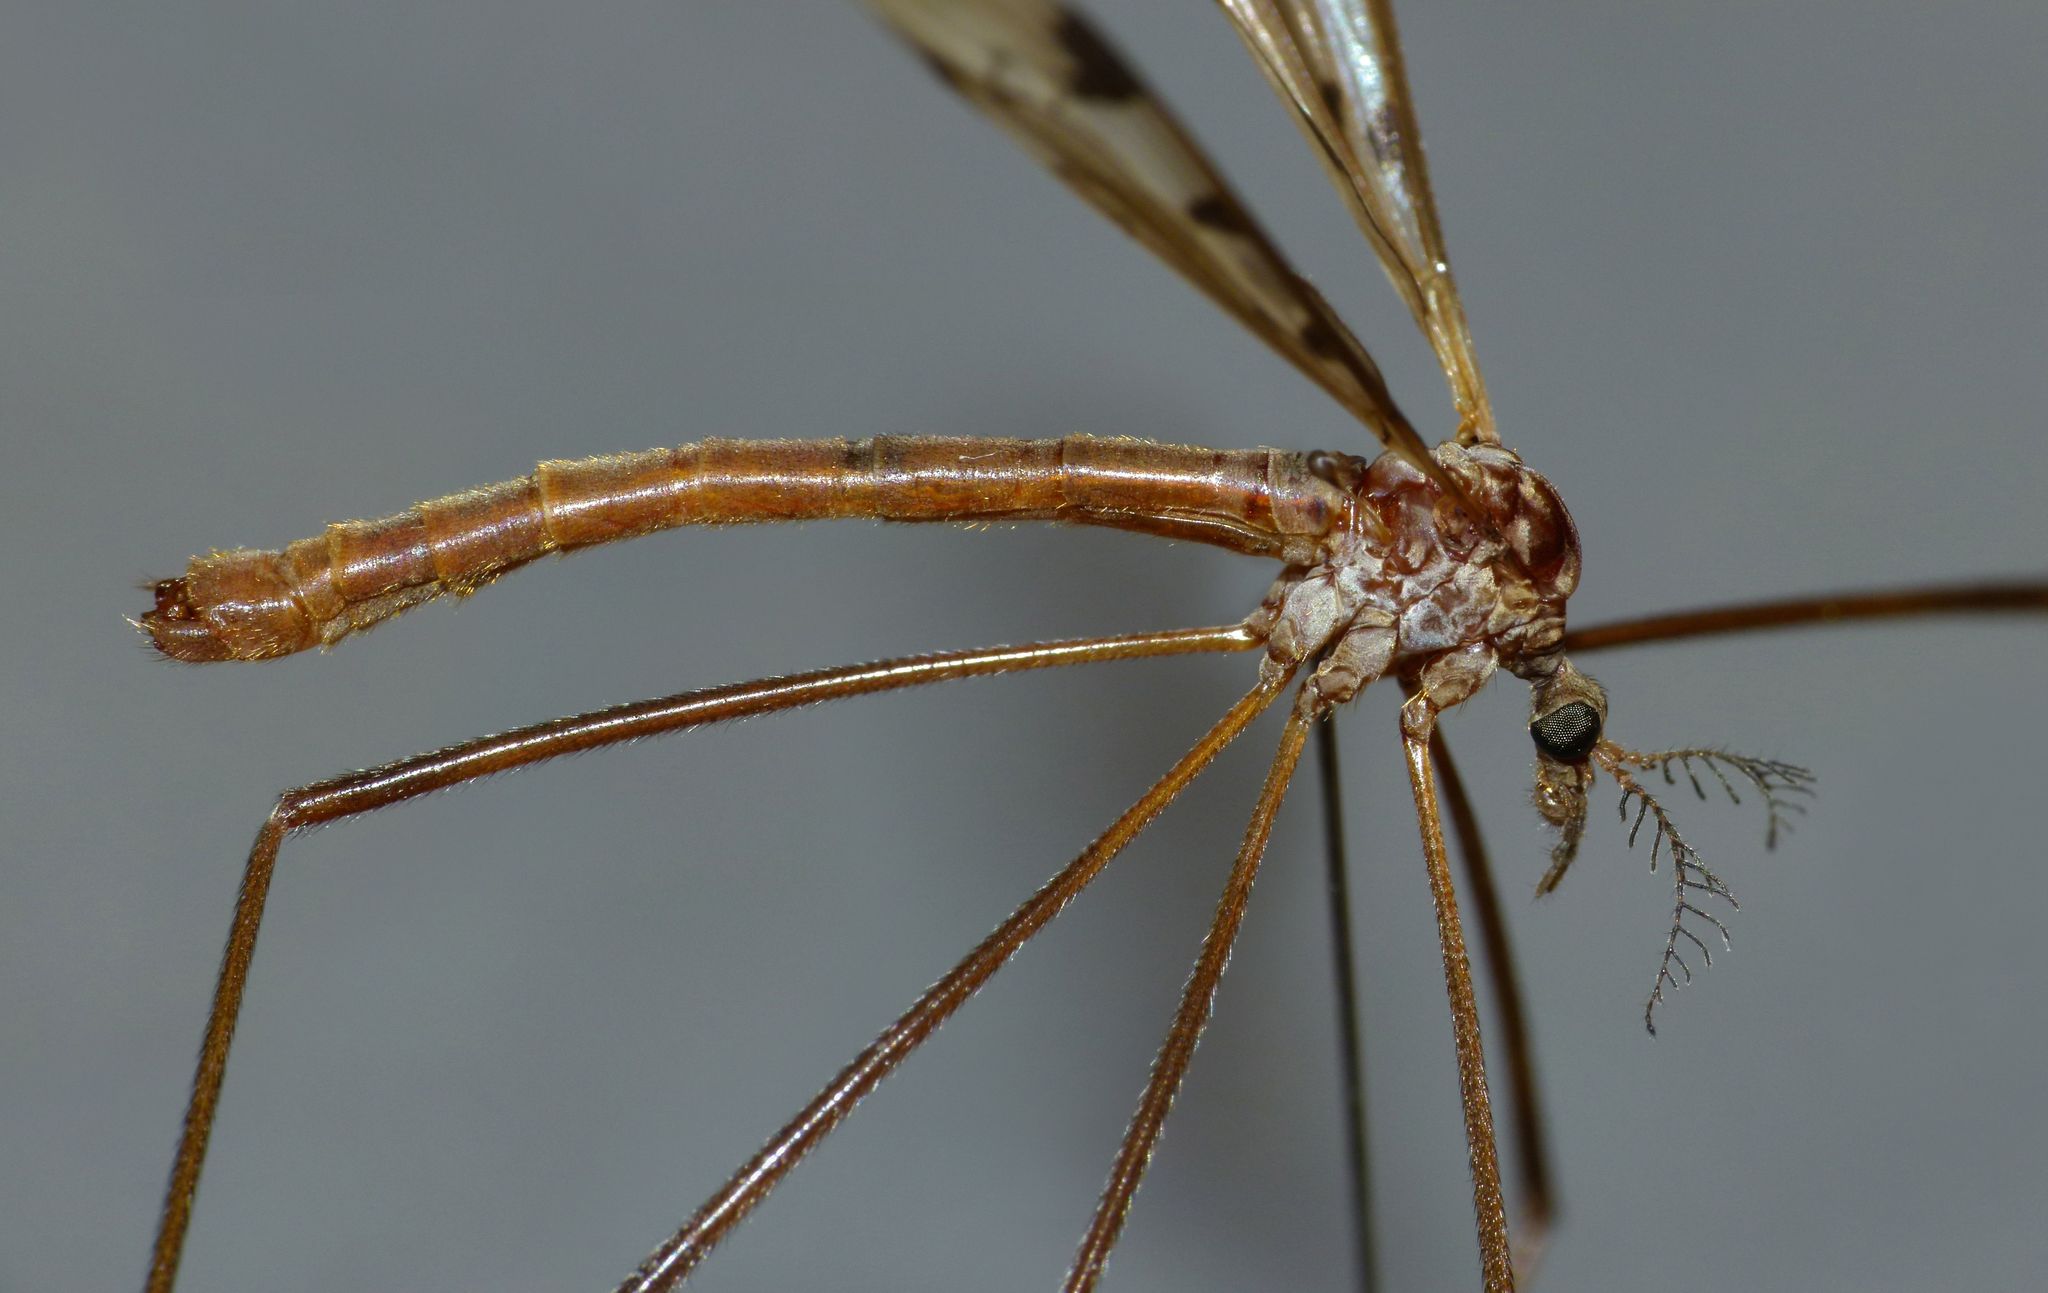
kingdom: Animalia
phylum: Arthropoda
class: Insecta
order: Diptera
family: Limoniidae
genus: Gynoplistia
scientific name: Gynoplistia glauca
